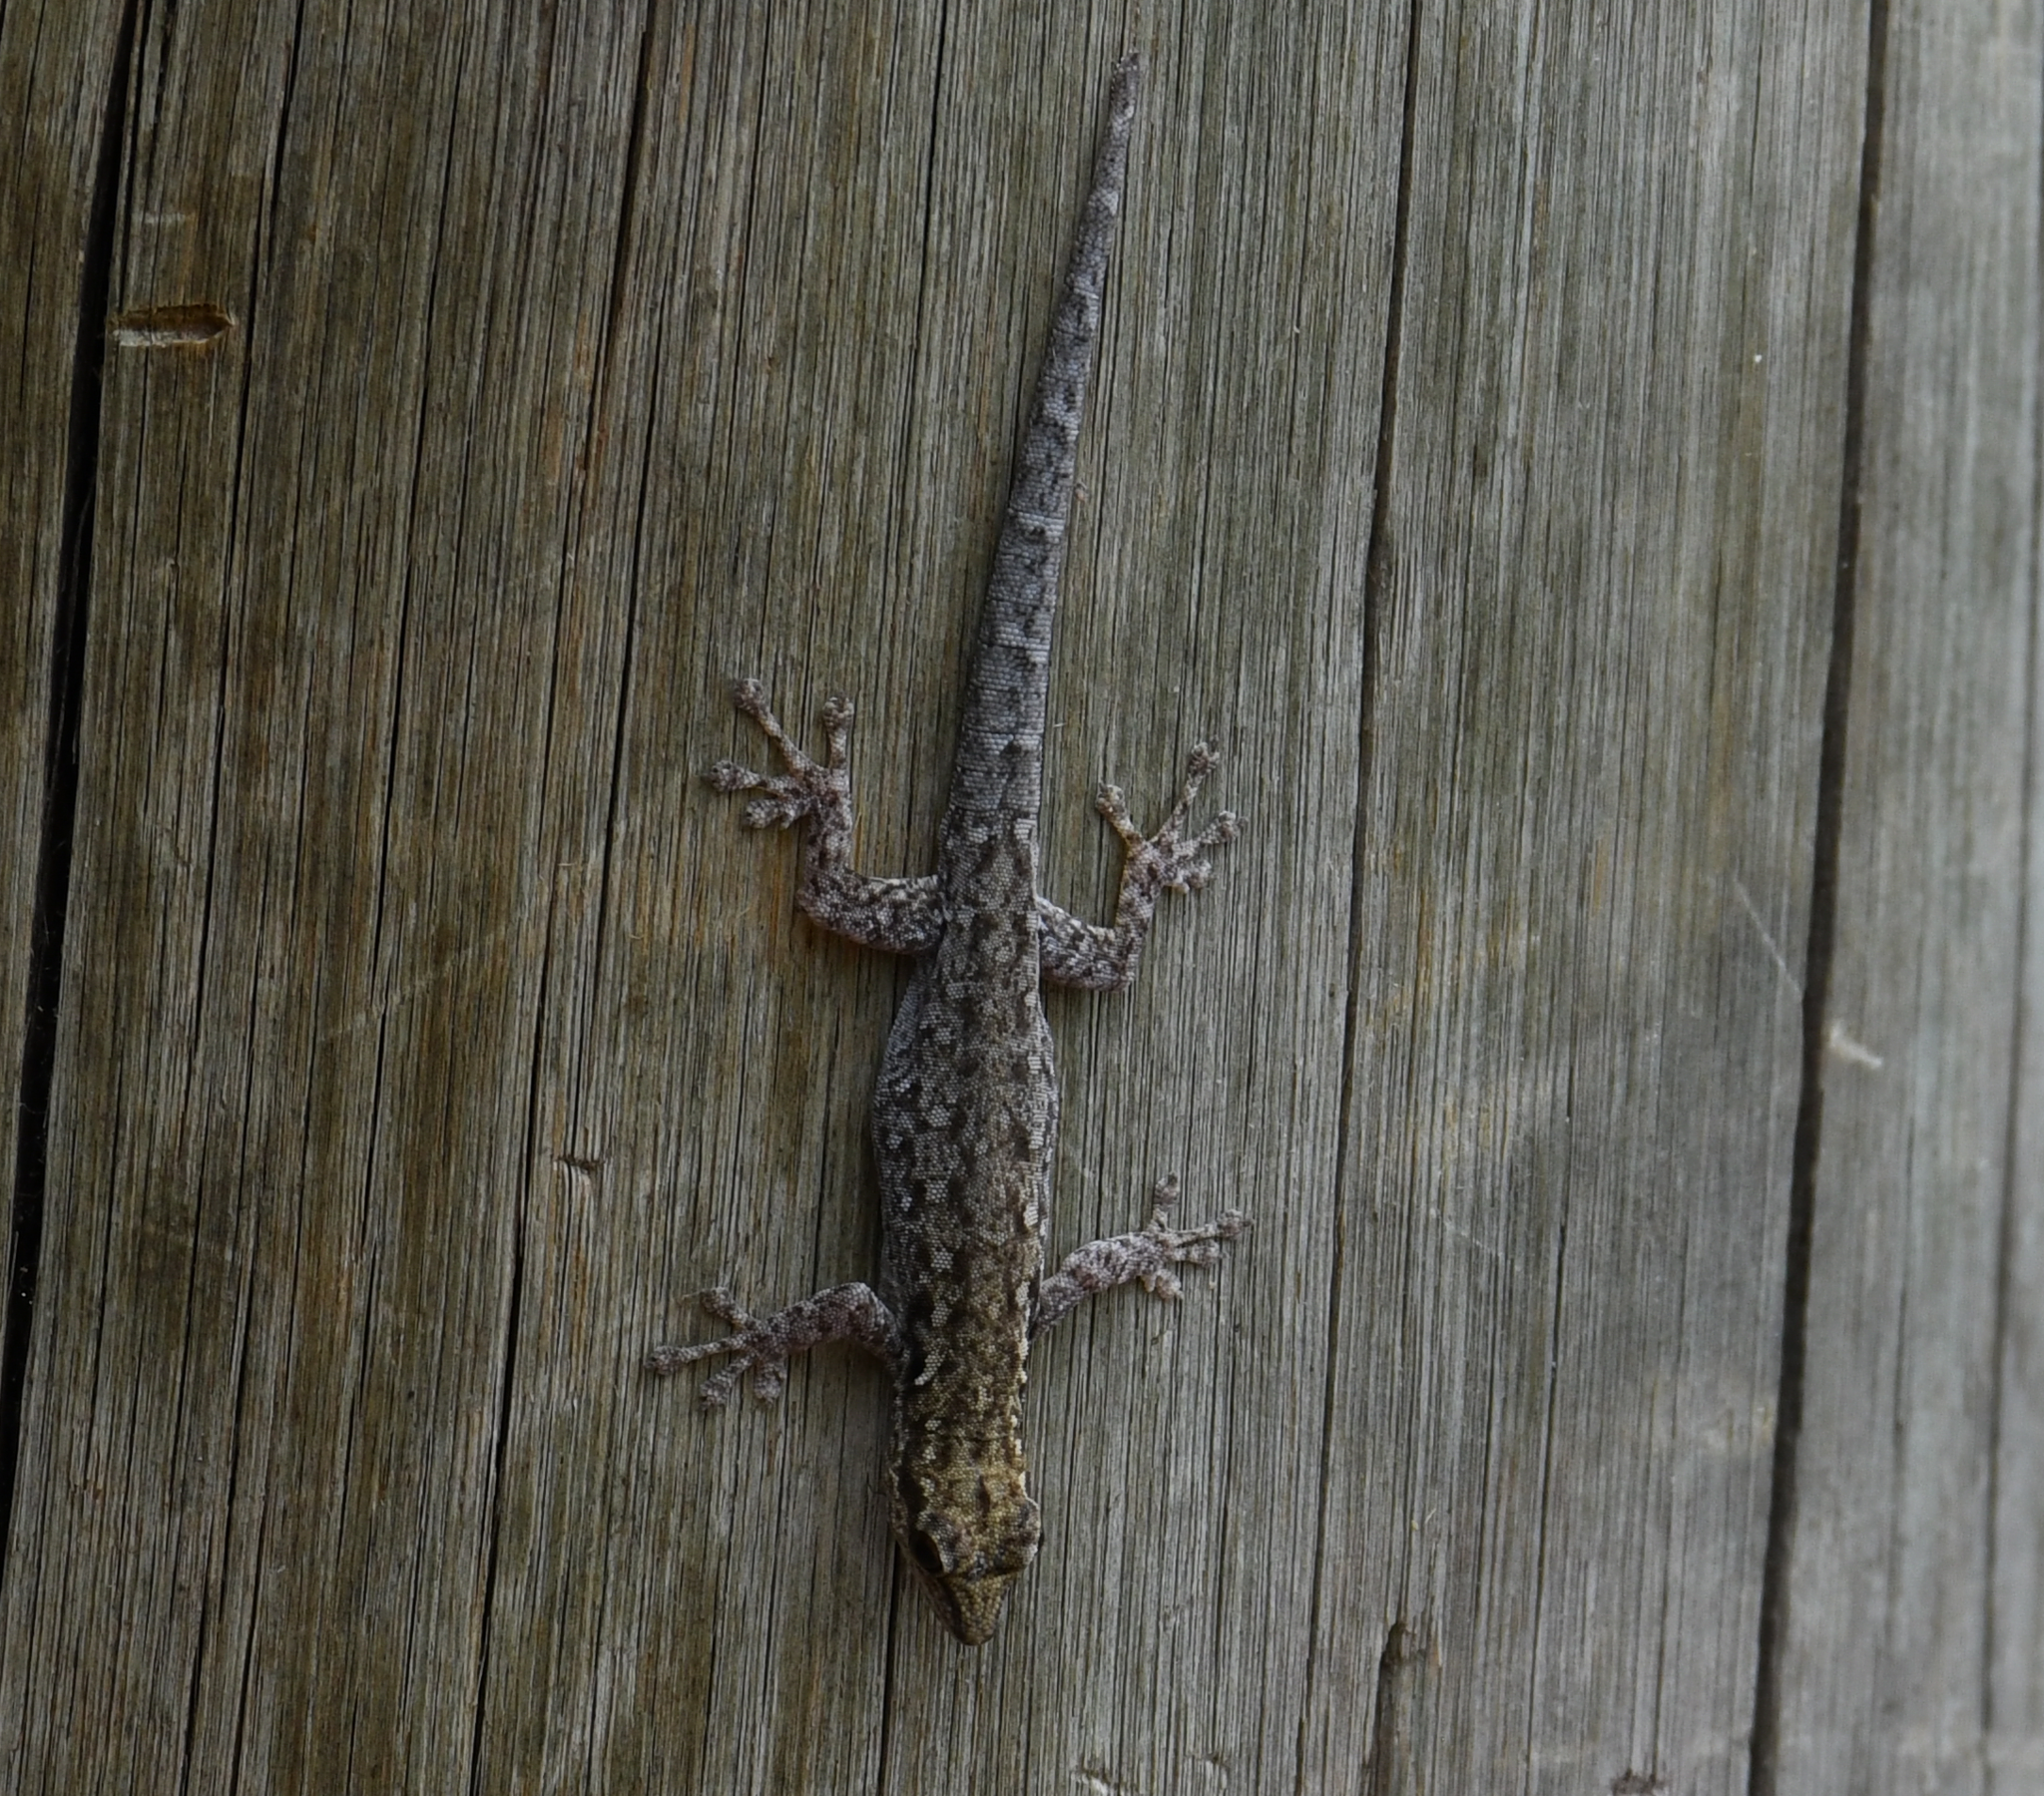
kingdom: Animalia
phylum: Chordata
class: Squamata
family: Gekkonidae
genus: Lygodactylus
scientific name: Lygodactylus chobiensis
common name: Okavango dwarf gecko
